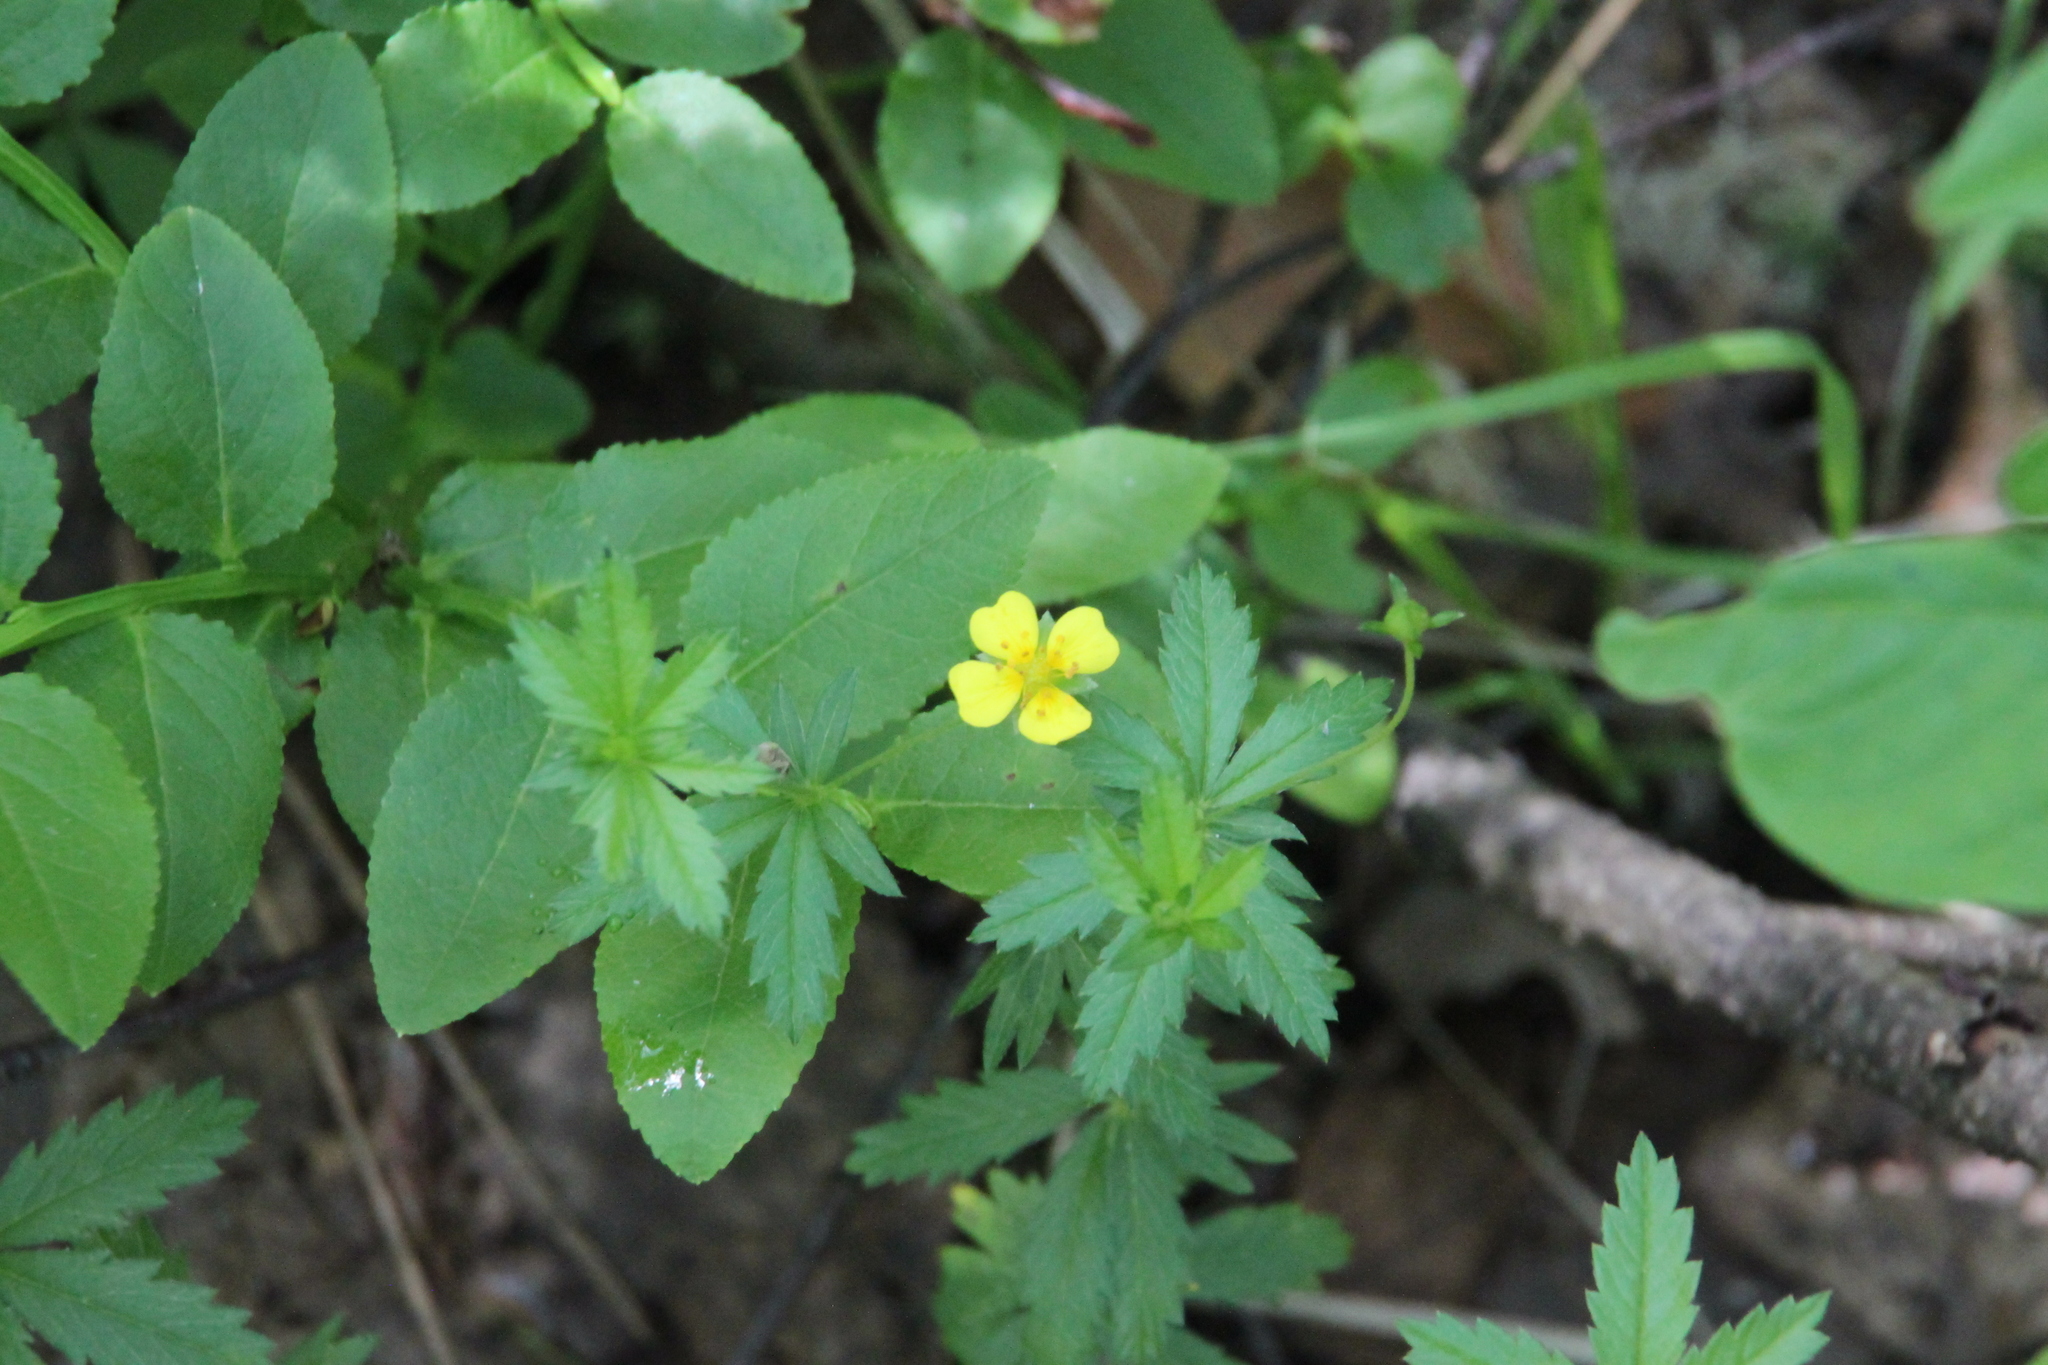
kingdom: Plantae
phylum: Tracheophyta
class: Magnoliopsida
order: Rosales
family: Rosaceae
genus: Potentilla
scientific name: Potentilla erecta
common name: Tormentil
